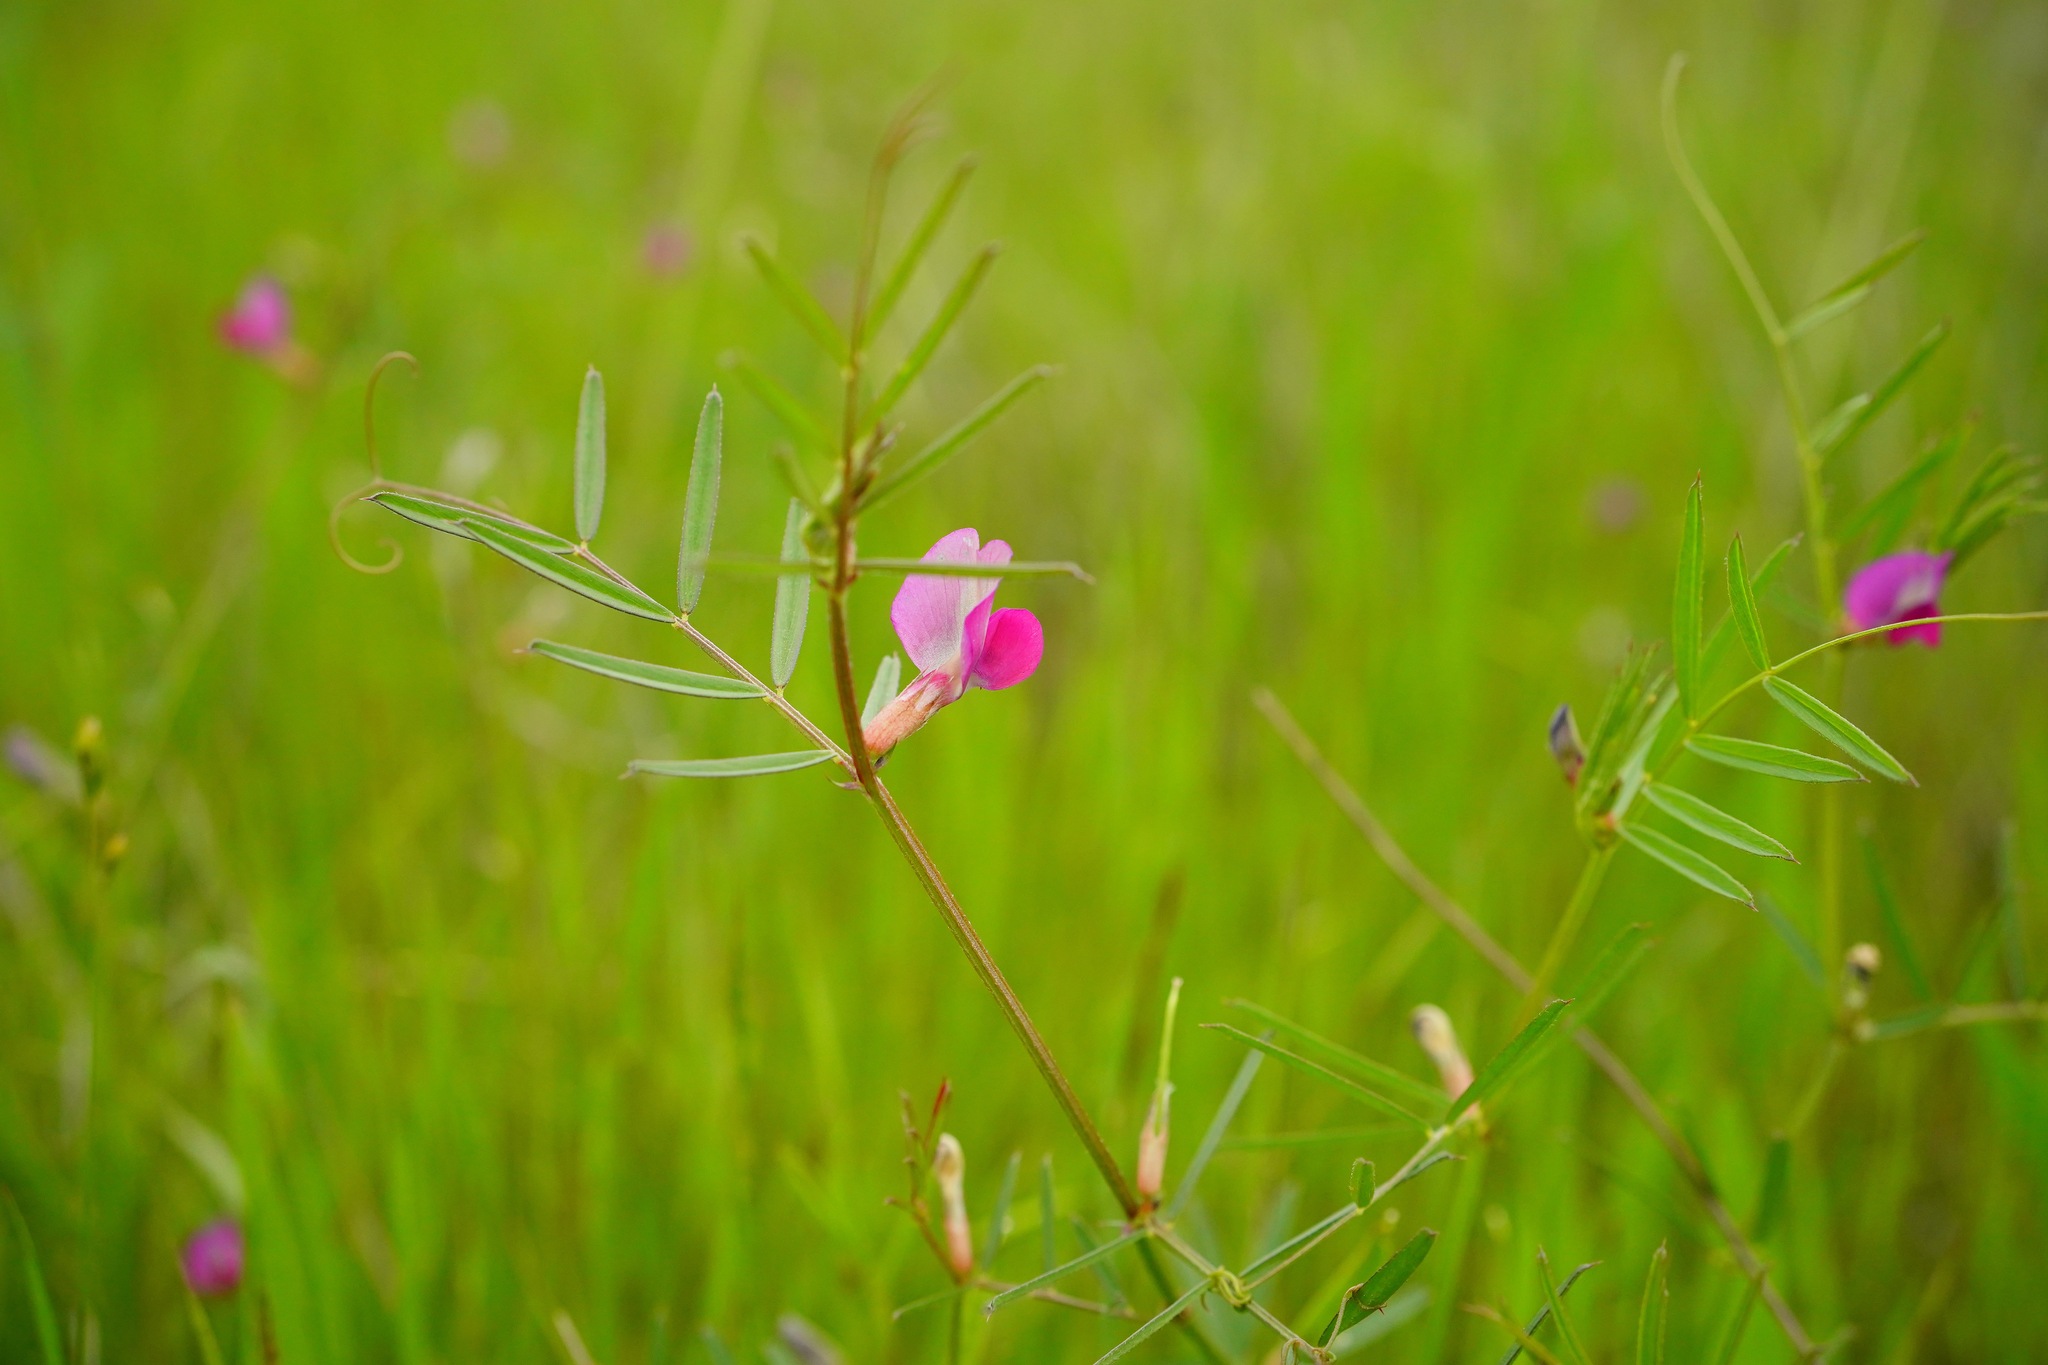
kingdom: Plantae
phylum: Tracheophyta
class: Magnoliopsida
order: Fabales
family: Fabaceae
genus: Vicia
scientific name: Vicia sativa
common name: Garden vetch
